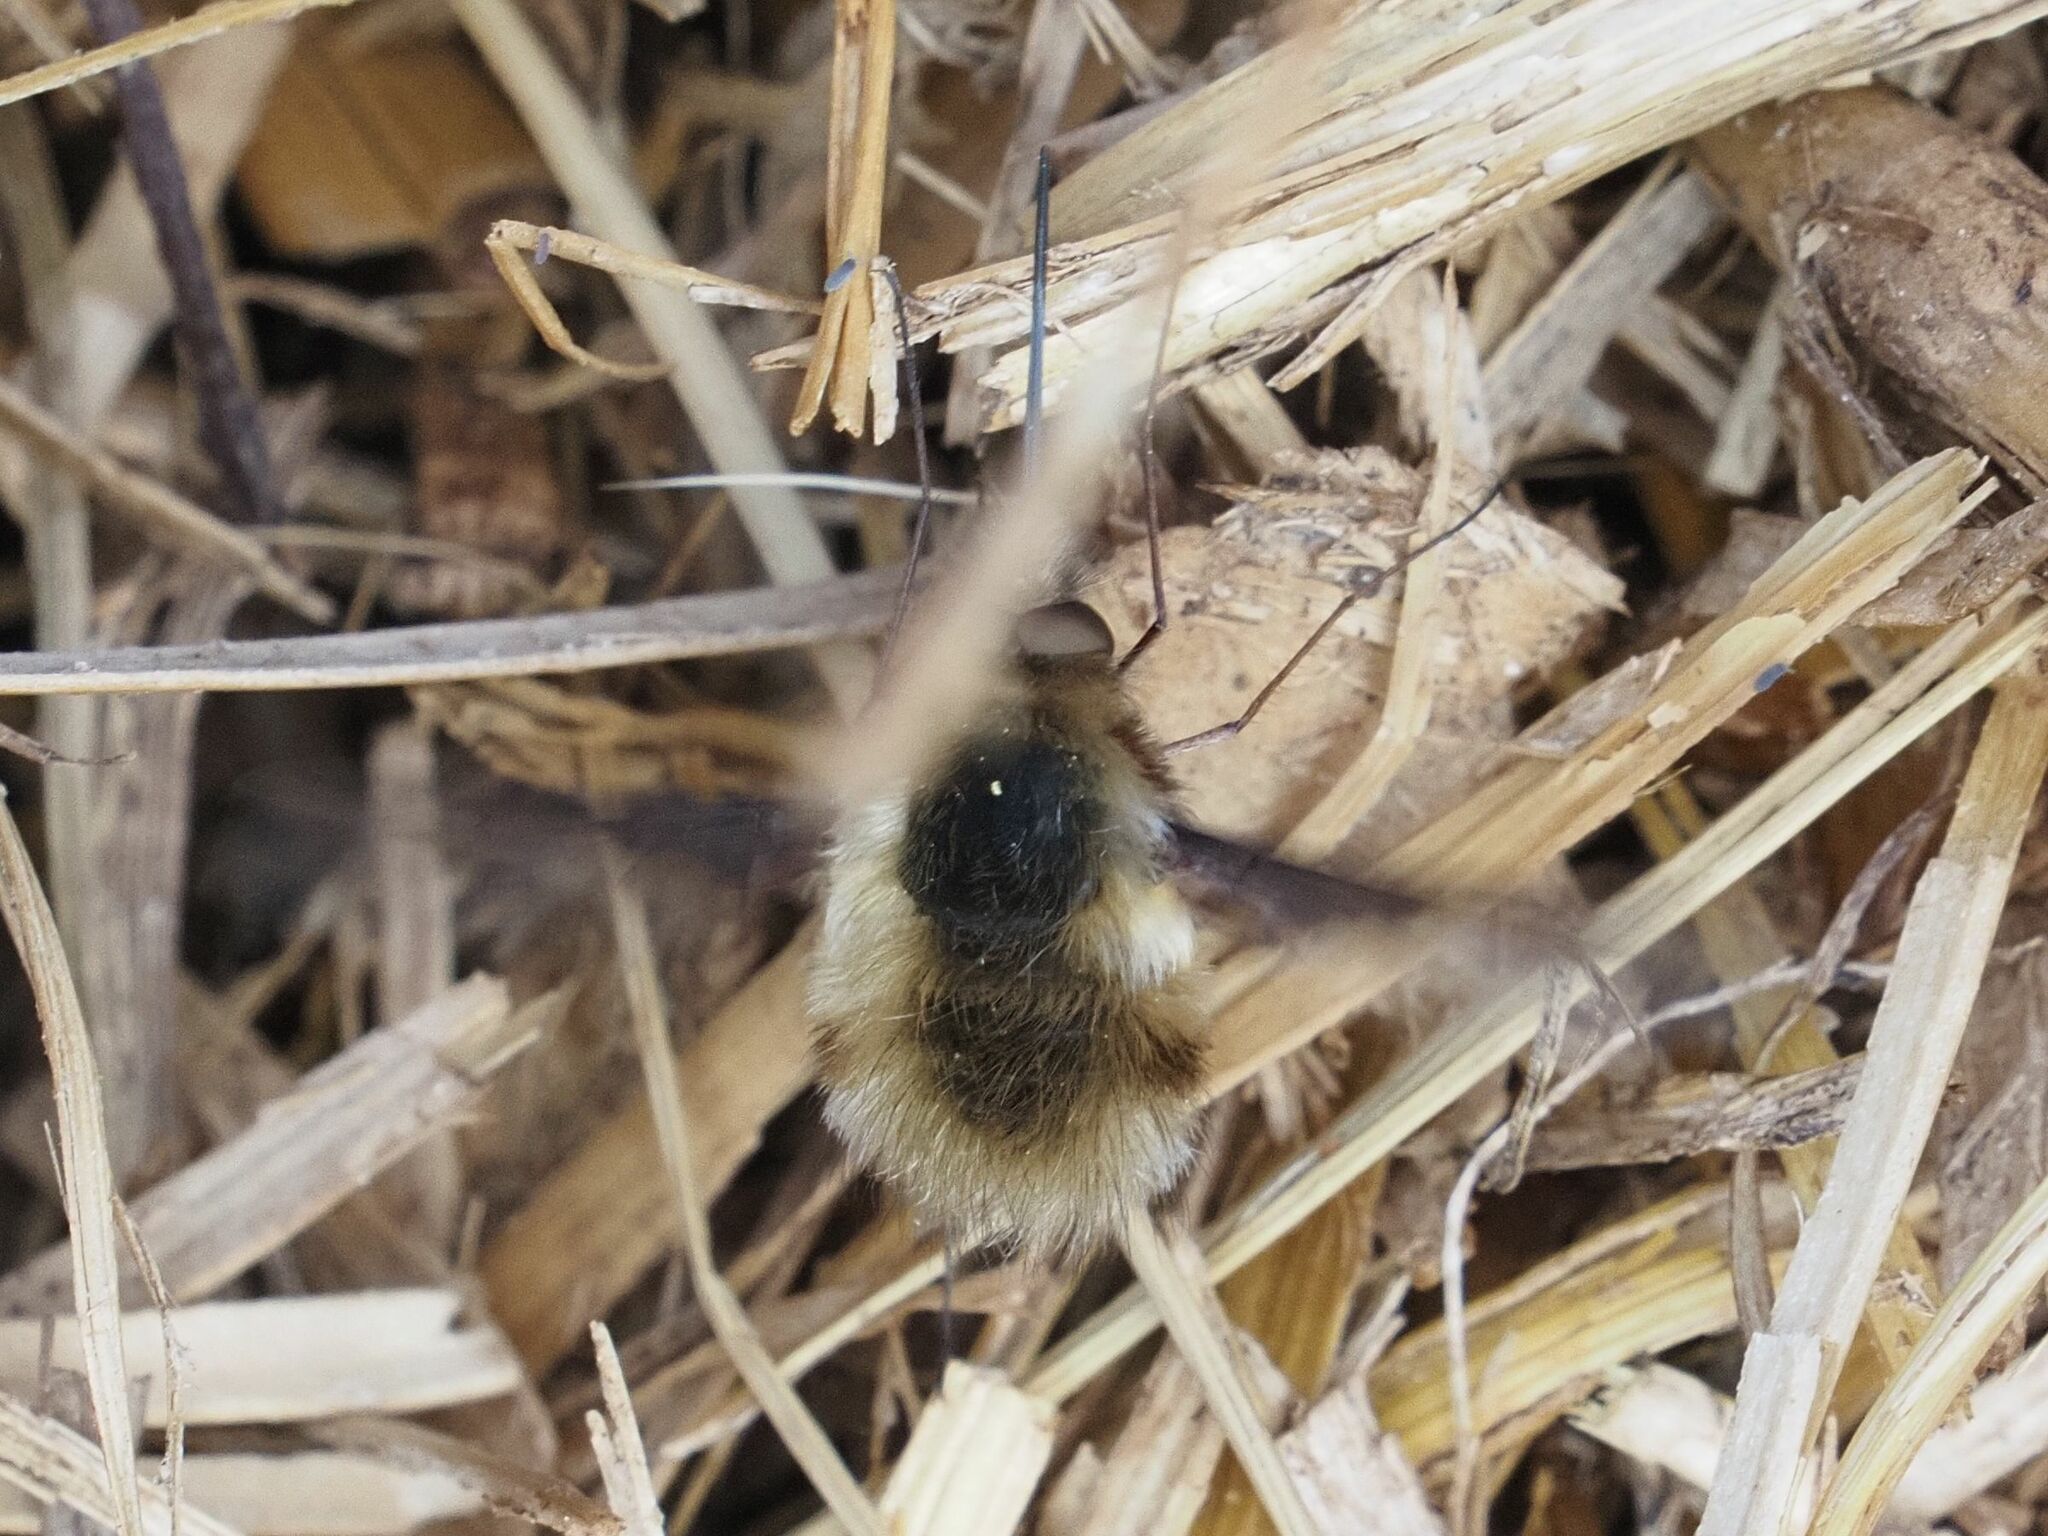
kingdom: Animalia
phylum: Arthropoda
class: Insecta
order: Diptera
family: Bombyliidae
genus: Bombylius
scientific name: Bombylius major
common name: Bee fly
